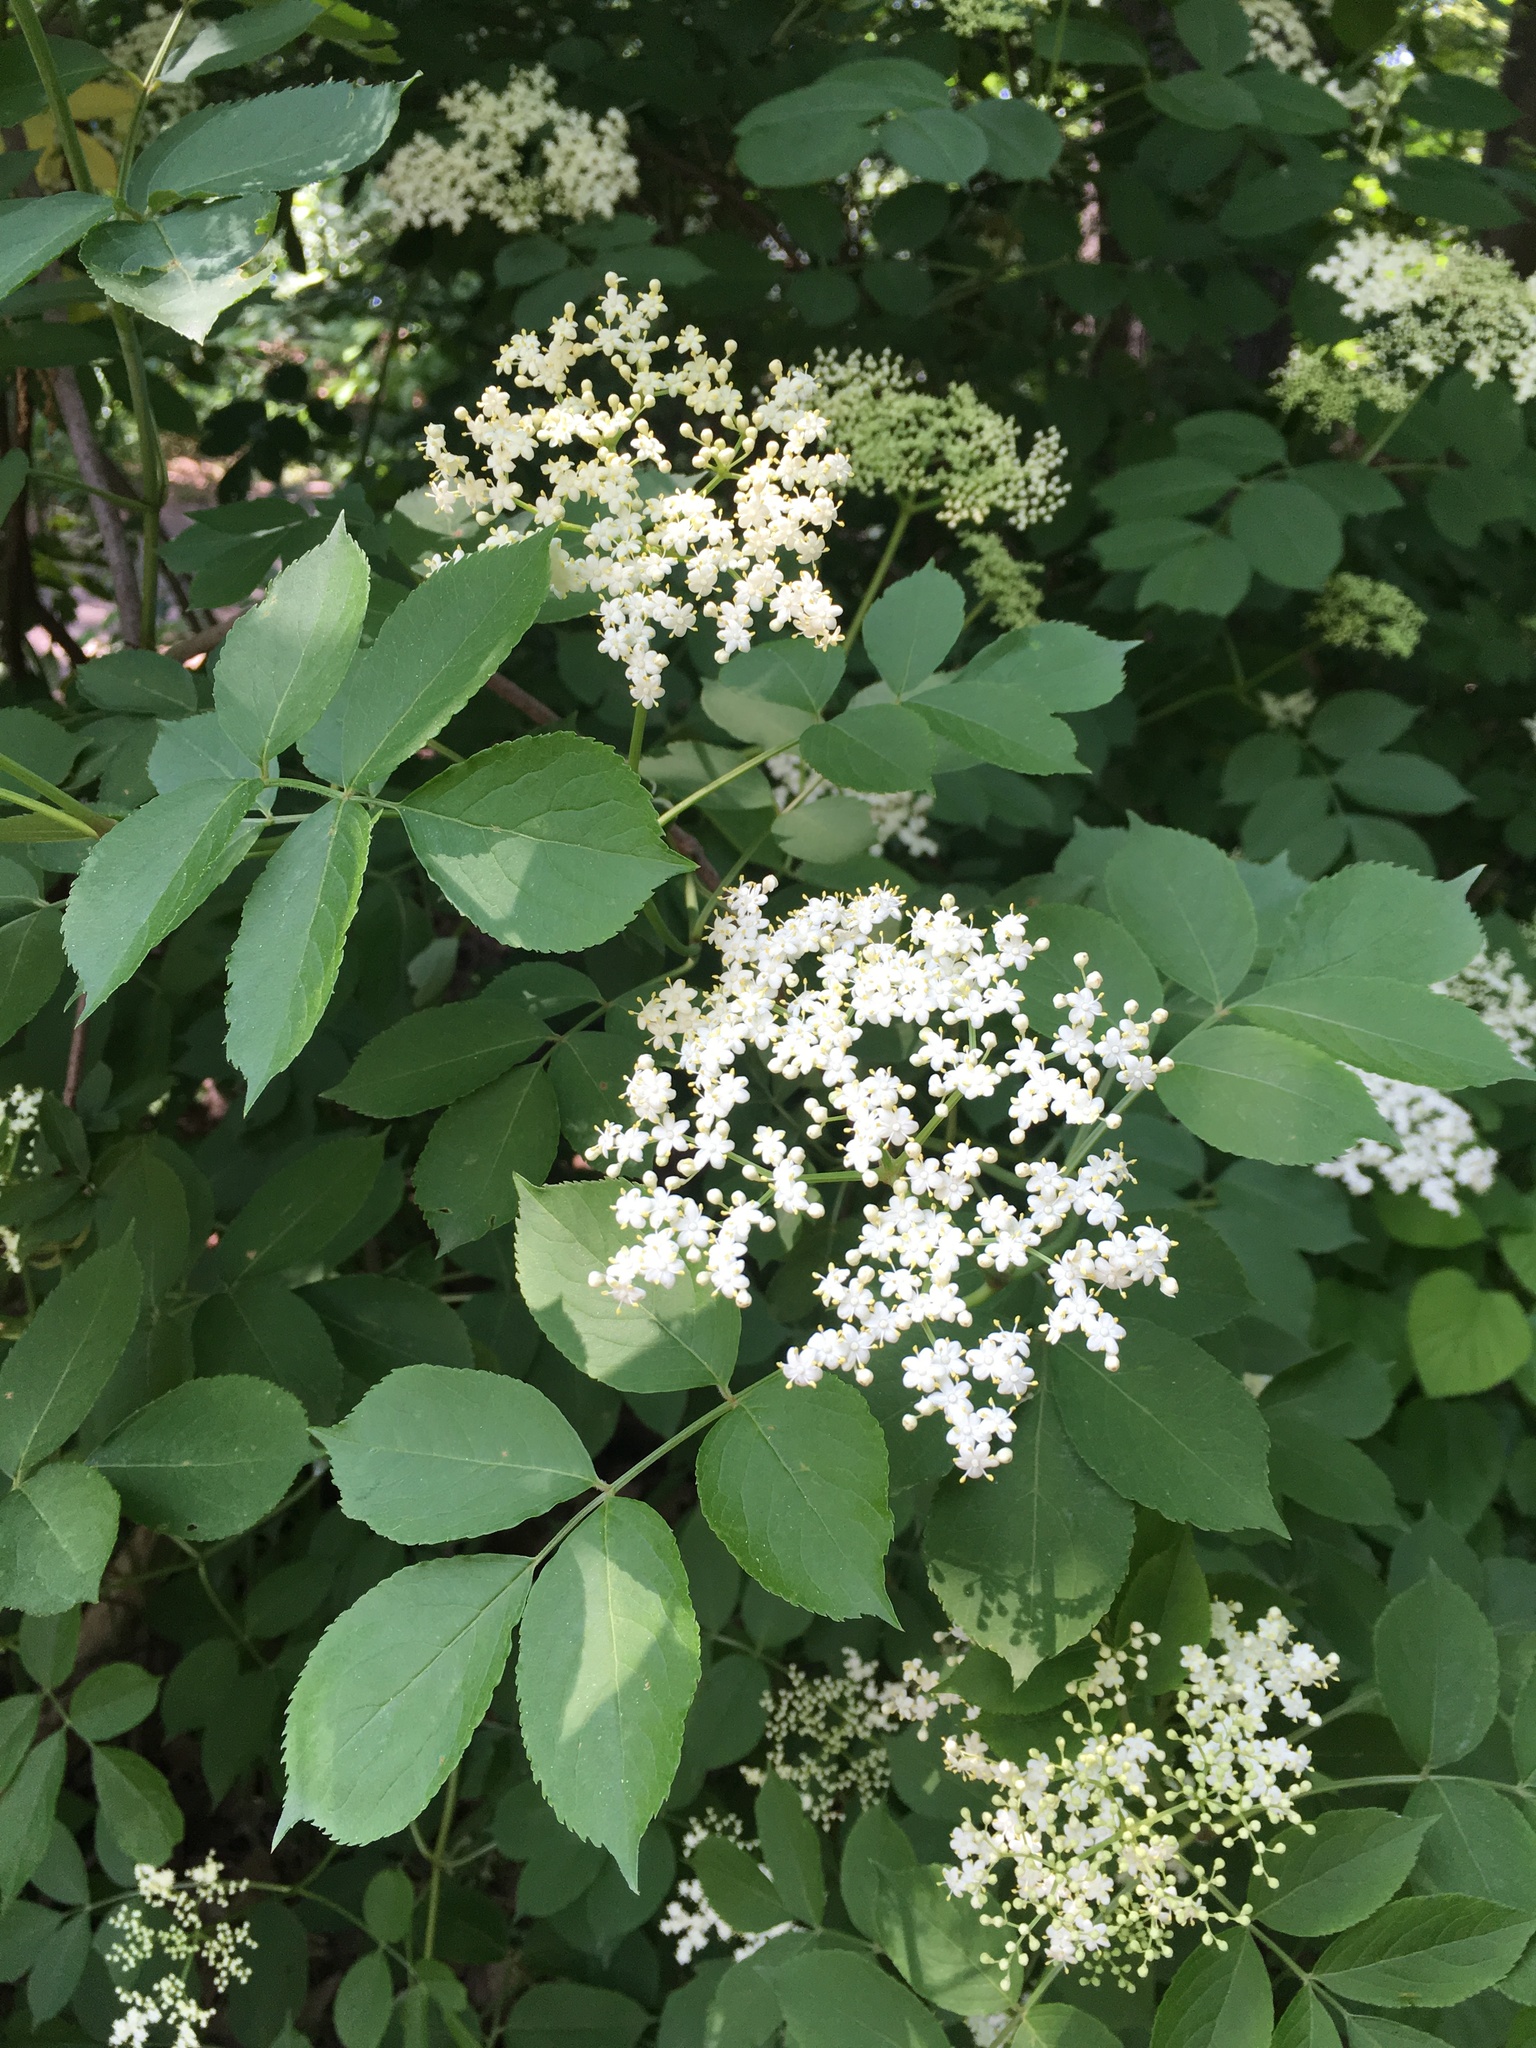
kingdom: Plantae
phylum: Tracheophyta
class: Magnoliopsida
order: Dipsacales
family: Viburnaceae
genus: Sambucus
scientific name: Sambucus canadensis
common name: American elder
